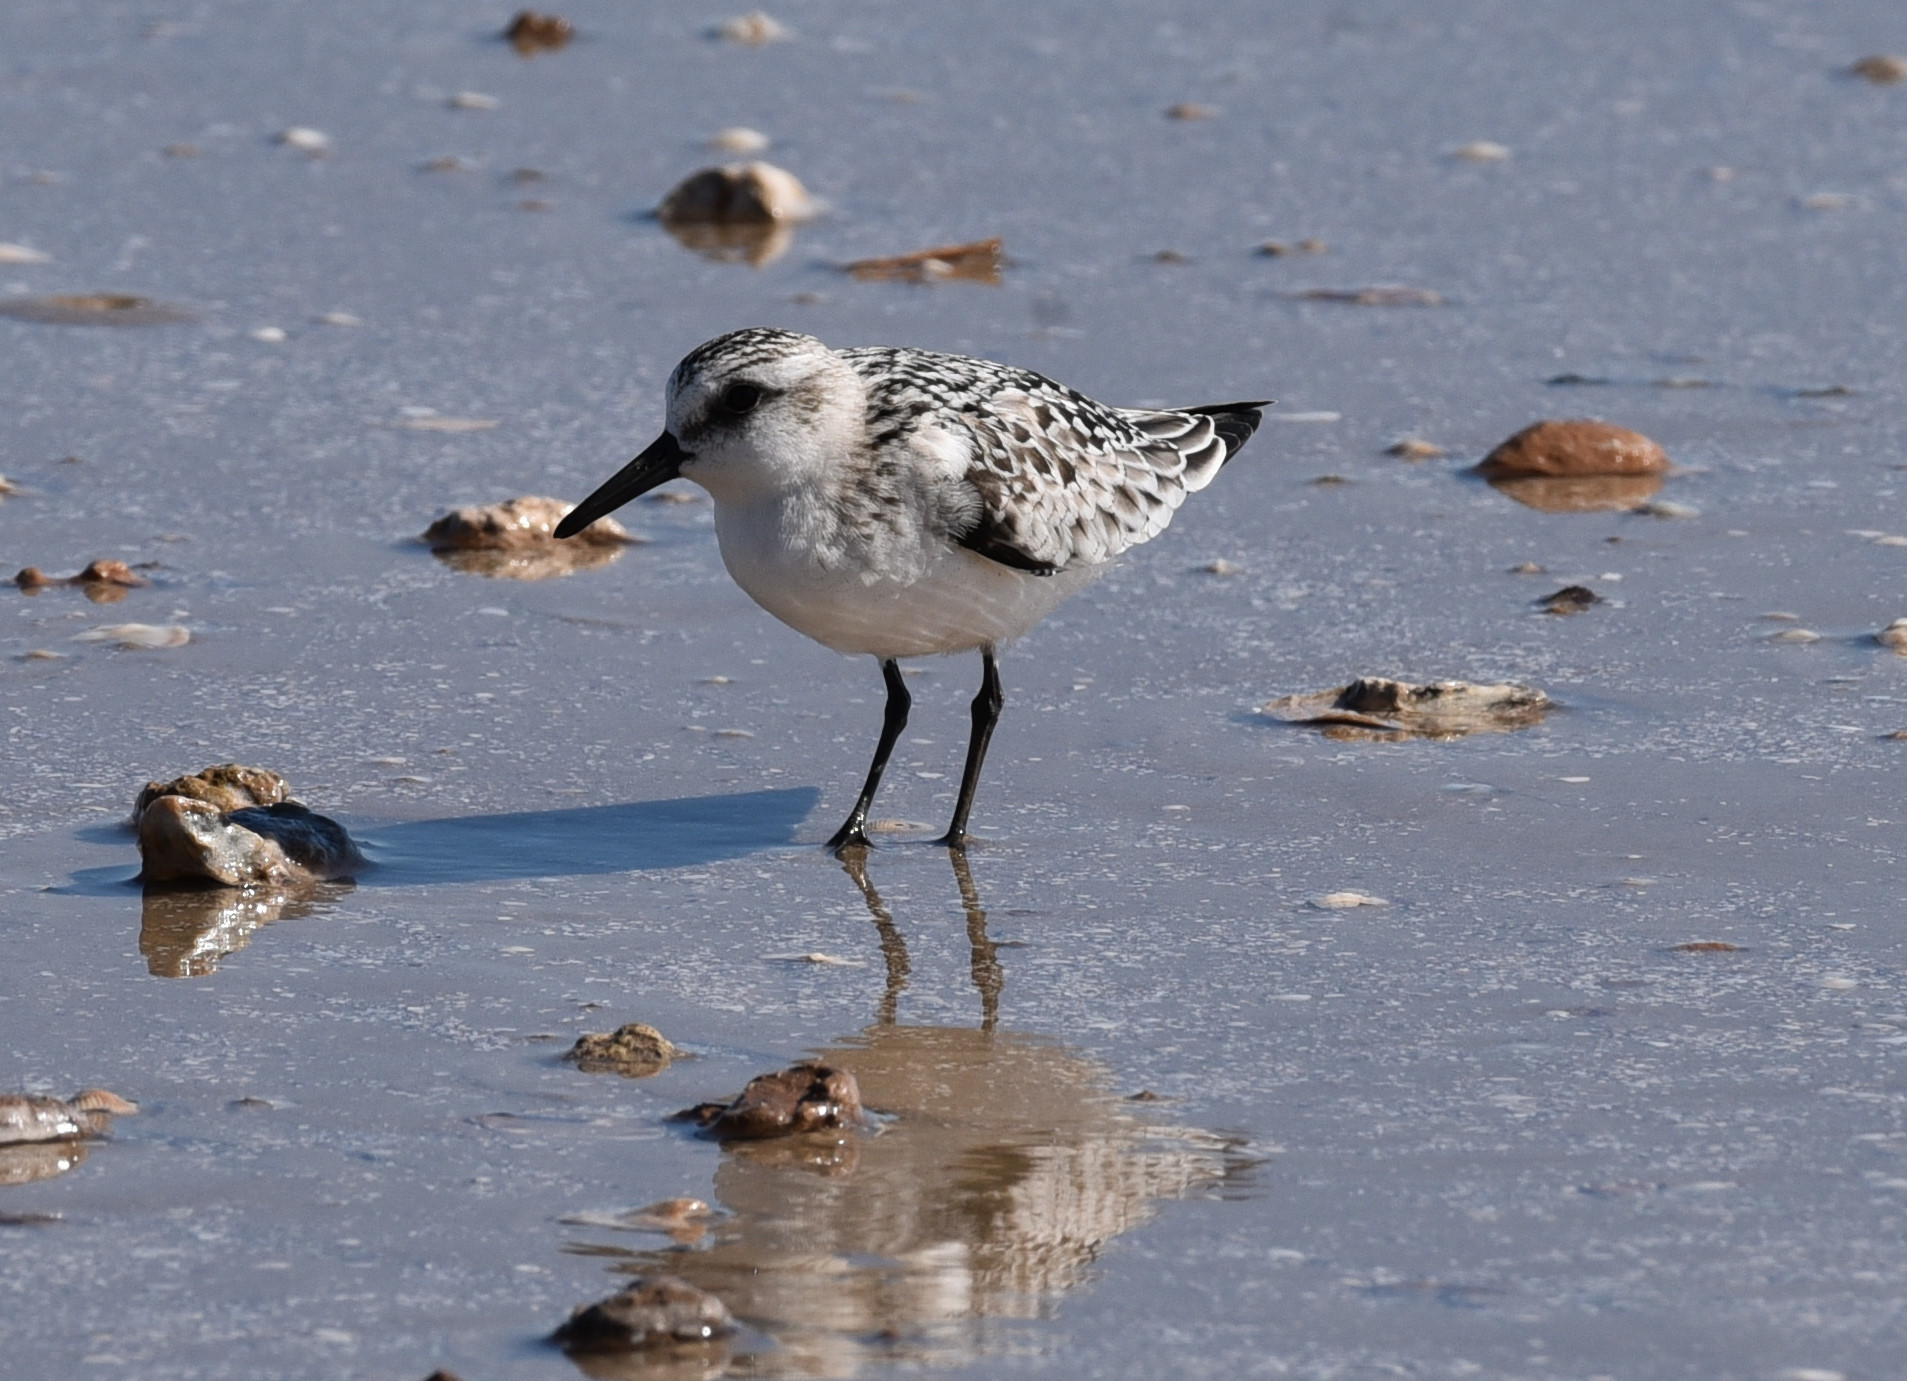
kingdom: Animalia
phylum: Chordata
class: Aves
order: Charadriiformes
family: Scolopacidae
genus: Calidris
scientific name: Calidris alba
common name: Sanderling
